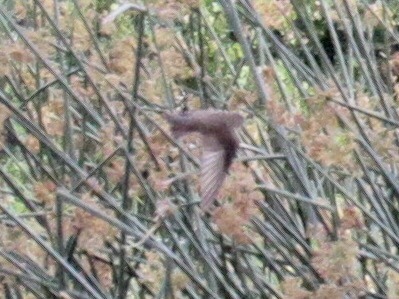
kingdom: Animalia
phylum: Chordata
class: Aves
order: Passeriformes
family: Hirundinidae
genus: Stelgidopteryx
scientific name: Stelgidopteryx serripennis
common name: Northern rough-winged swallow
